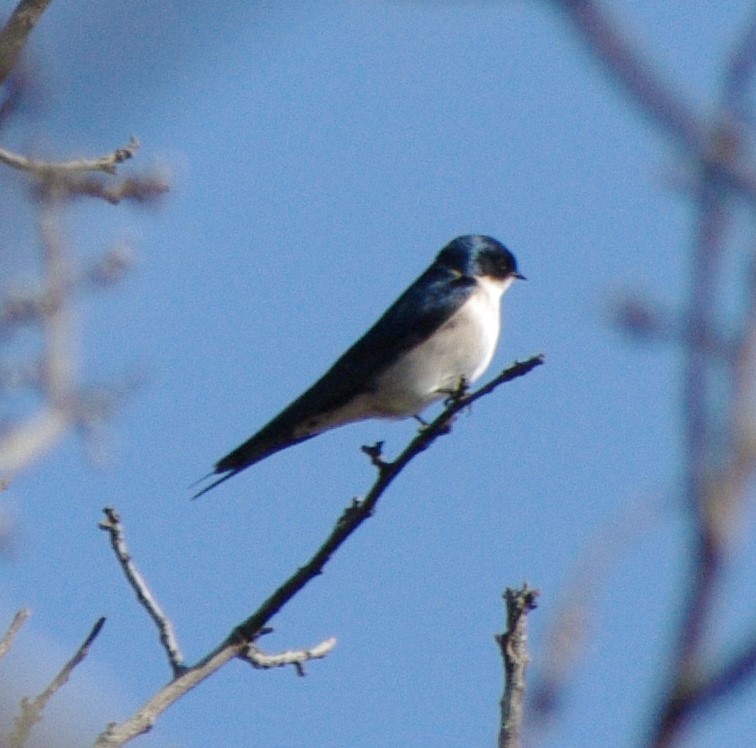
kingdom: Animalia
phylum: Chordata
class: Aves
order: Passeriformes
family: Hirundinidae
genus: Hirundo
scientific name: Hirundo dimidiata
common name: Pearl-breasted swallow
